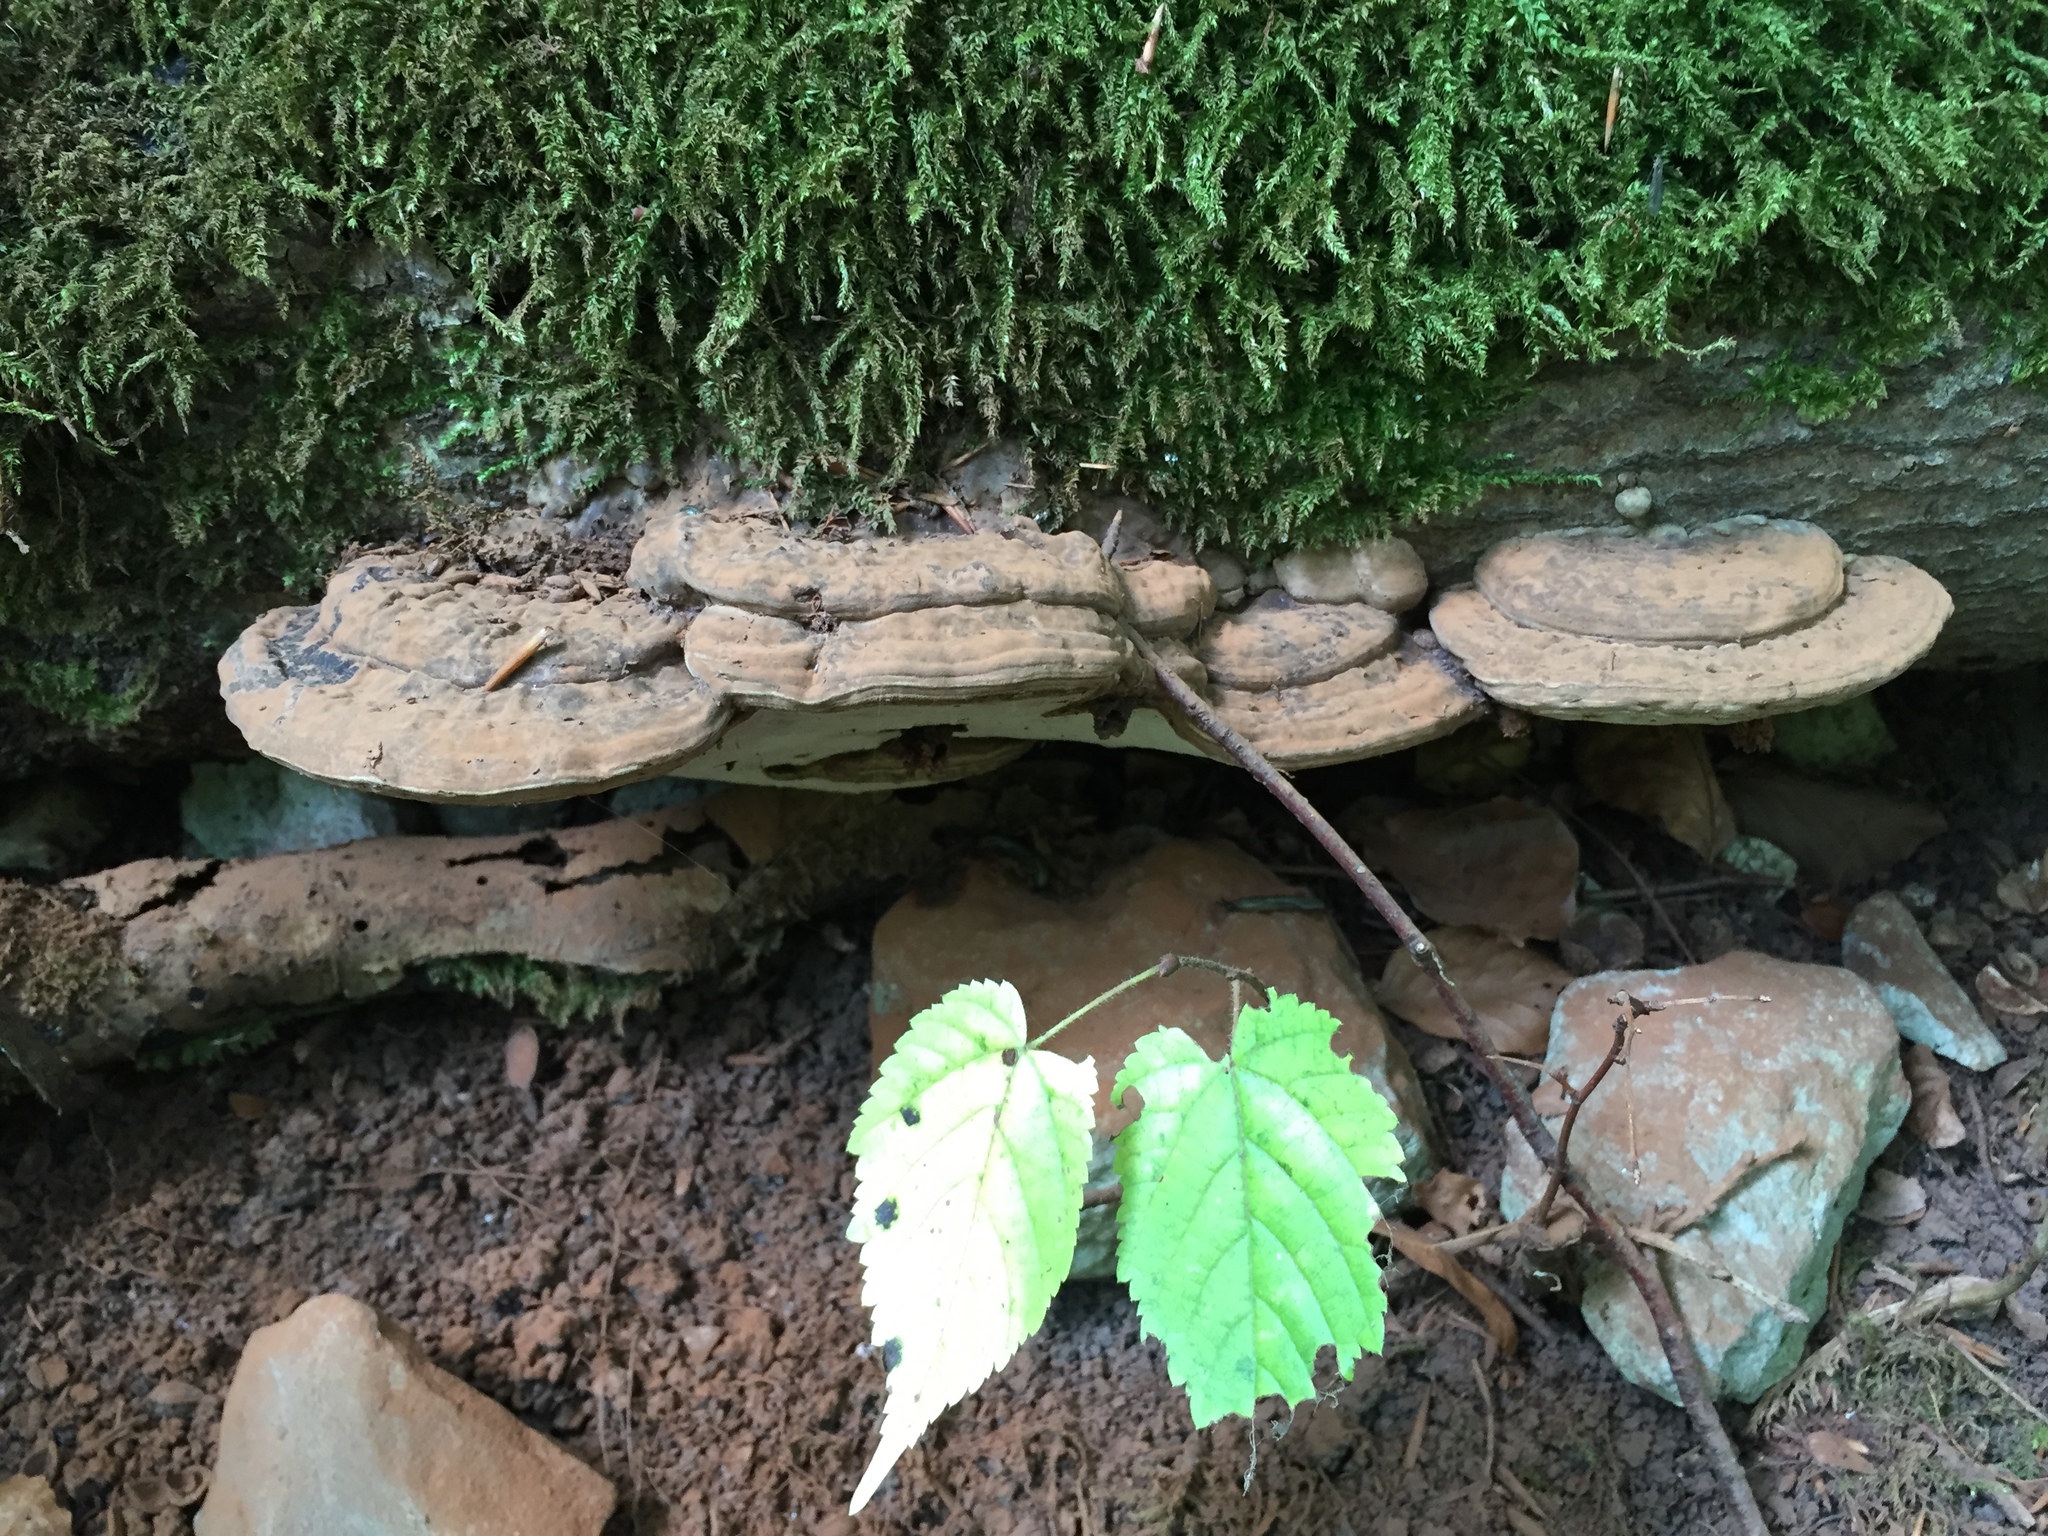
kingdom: Fungi
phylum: Basidiomycota
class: Agaricomycetes
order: Polyporales
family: Polyporaceae
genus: Ganoderma
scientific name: Ganoderma australe
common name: Southern bracket
